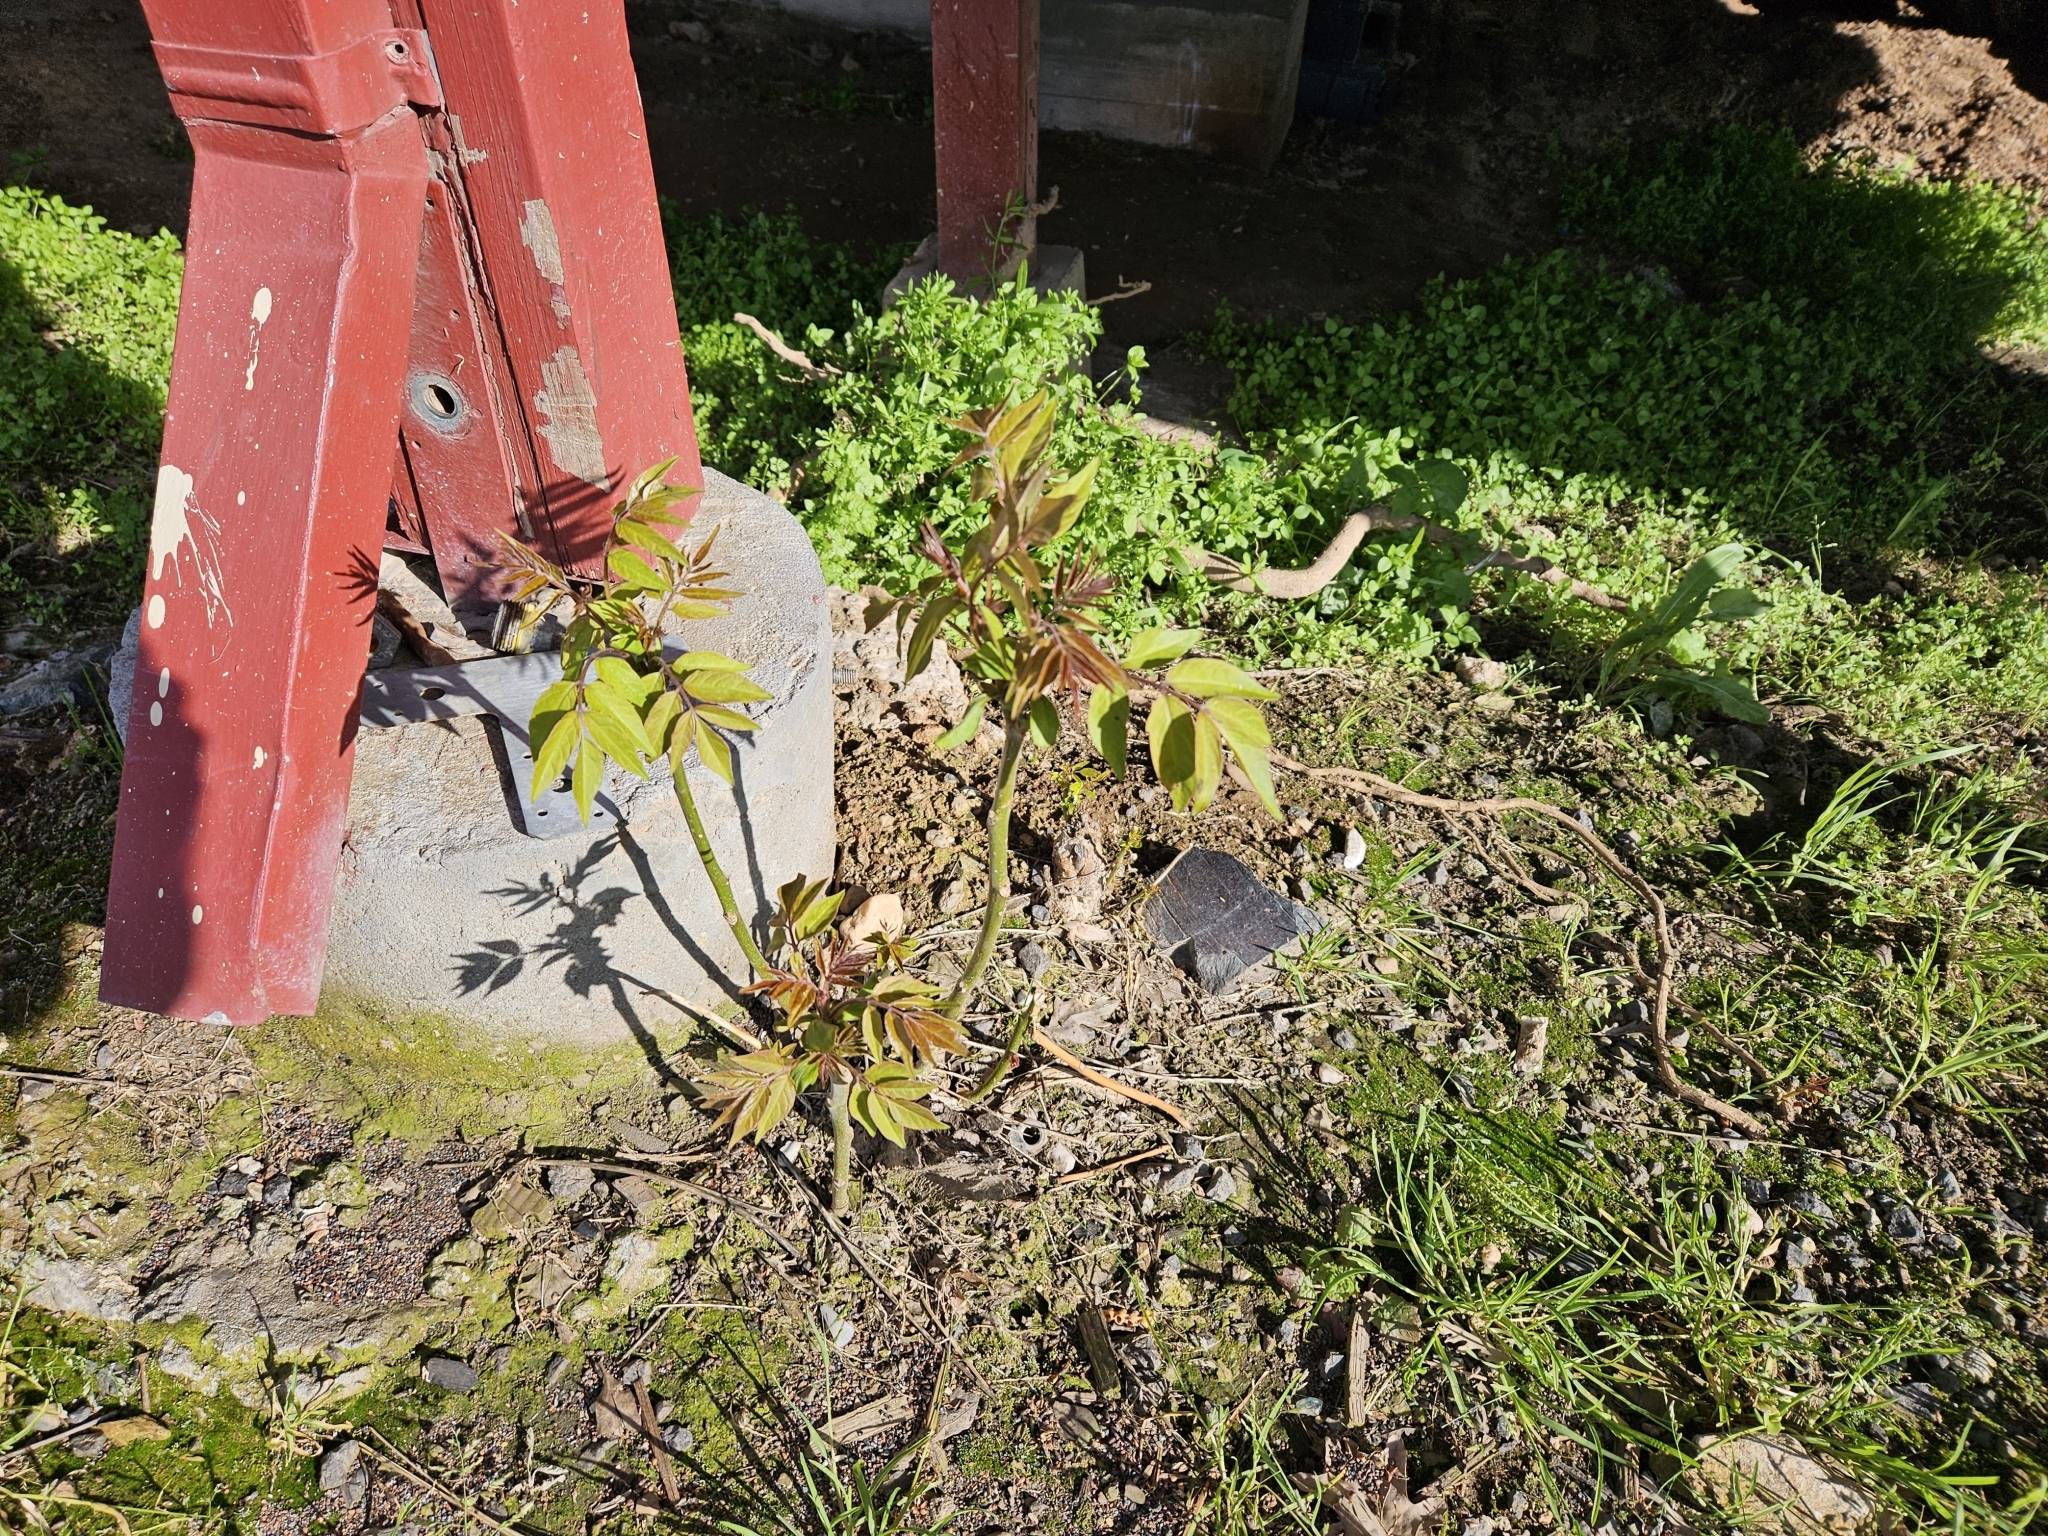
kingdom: Plantae
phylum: Tracheophyta
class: Magnoliopsida
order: Sapindales
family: Simaroubaceae
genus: Ailanthus
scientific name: Ailanthus altissima
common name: Tree-of-heaven
